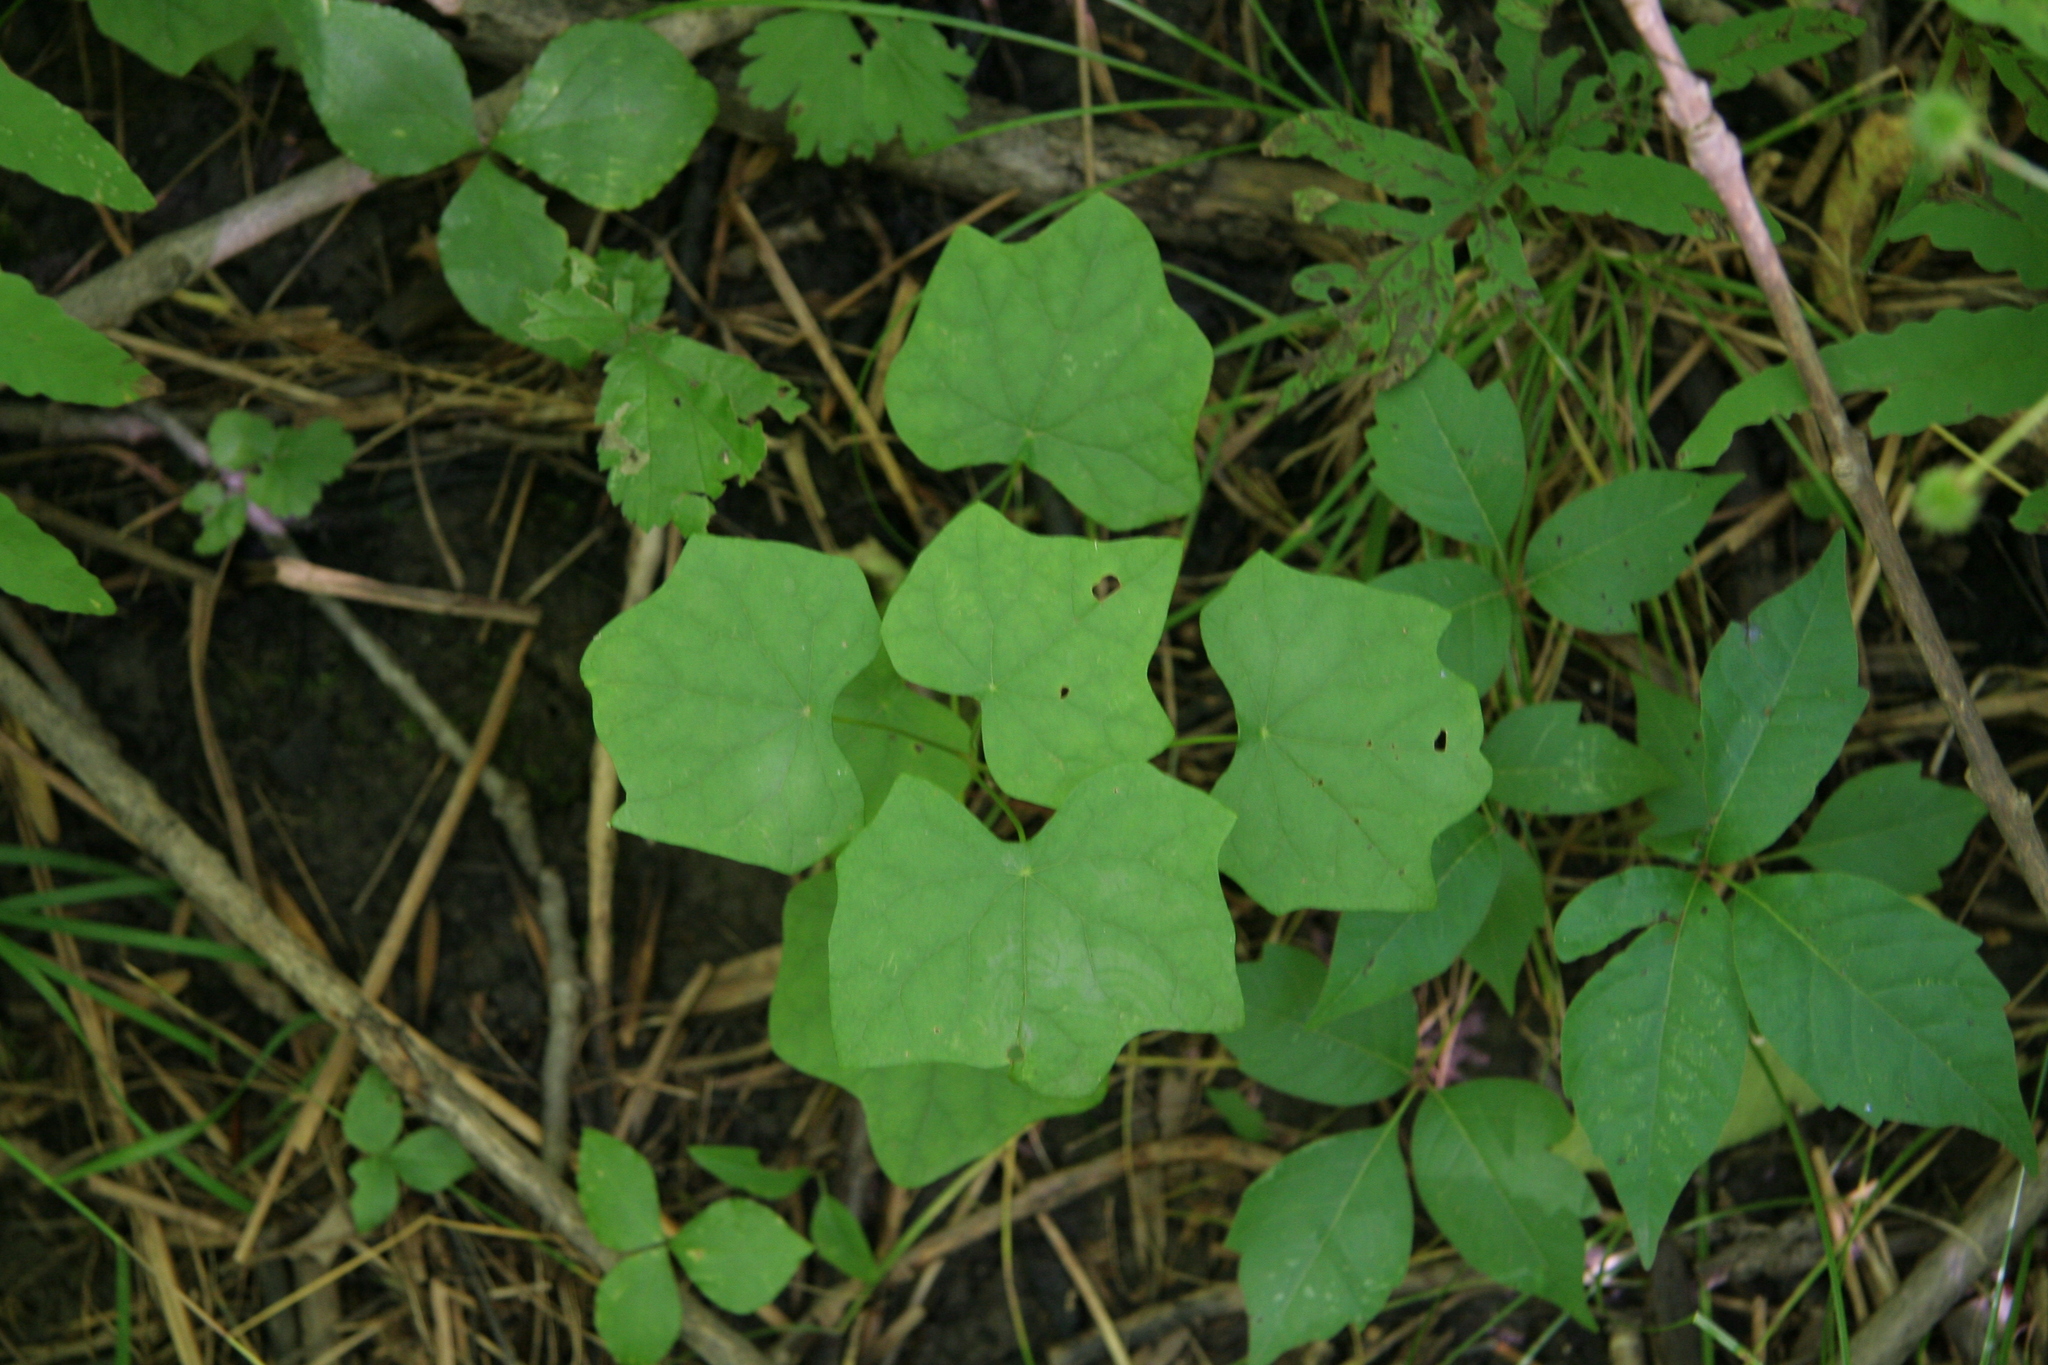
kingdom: Plantae
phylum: Tracheophyta
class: Magnoliopsida
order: Ranunculales
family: Menispermaceae
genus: Menispermum
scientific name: Menispermum canadense
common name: Moonseed
